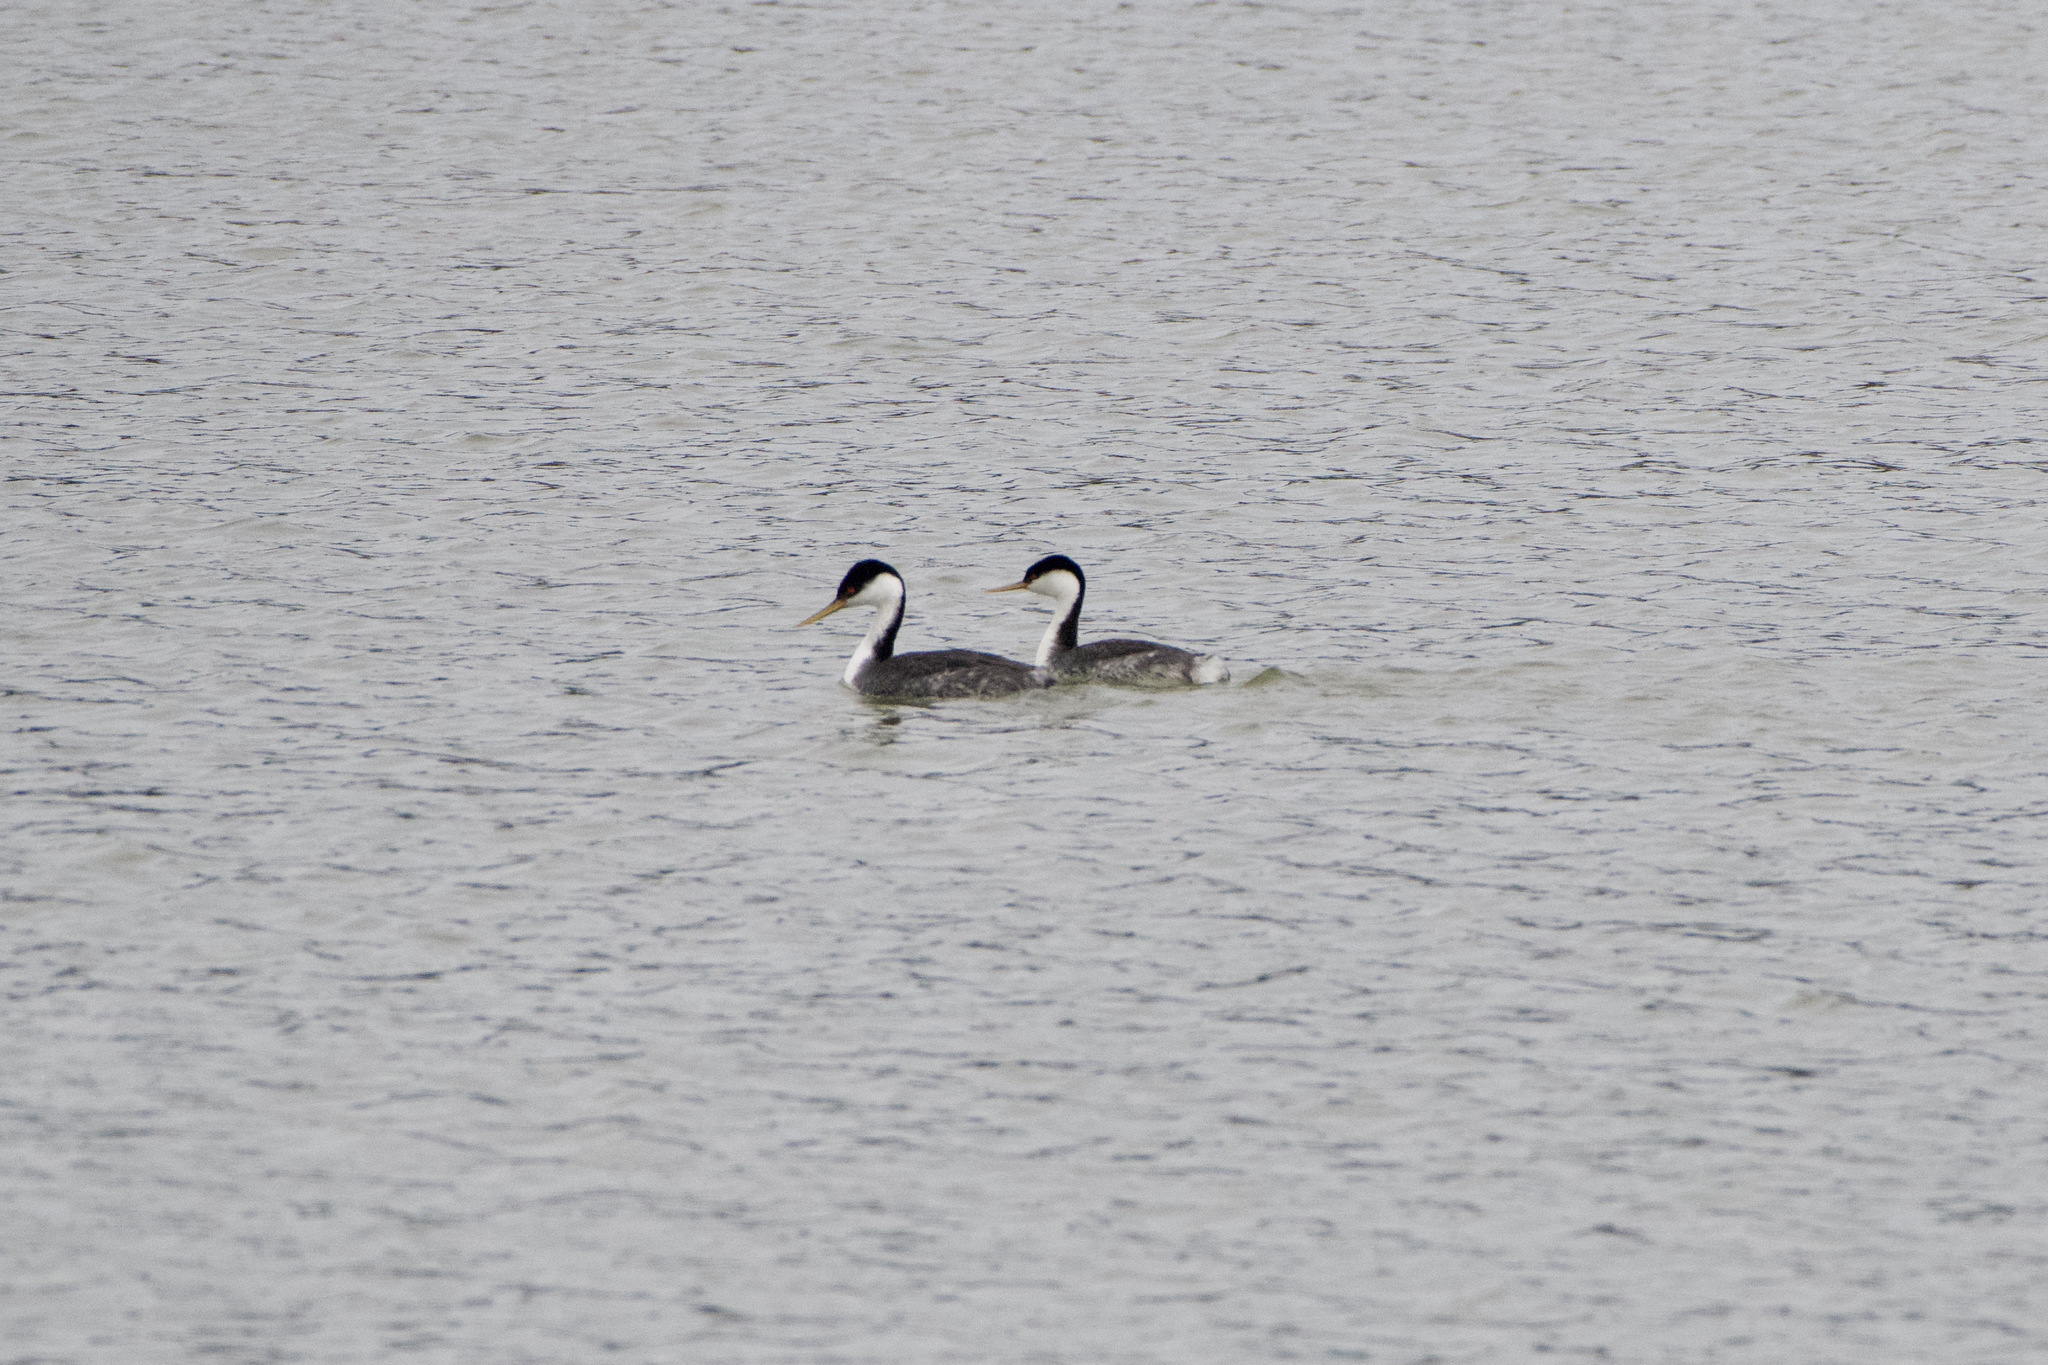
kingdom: Animalia
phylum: Chordata
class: Aves
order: Podicipediformes
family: Podicipedidae
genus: Aechmophorus
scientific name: Aechmophorus occidentalis
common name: Western grebe
